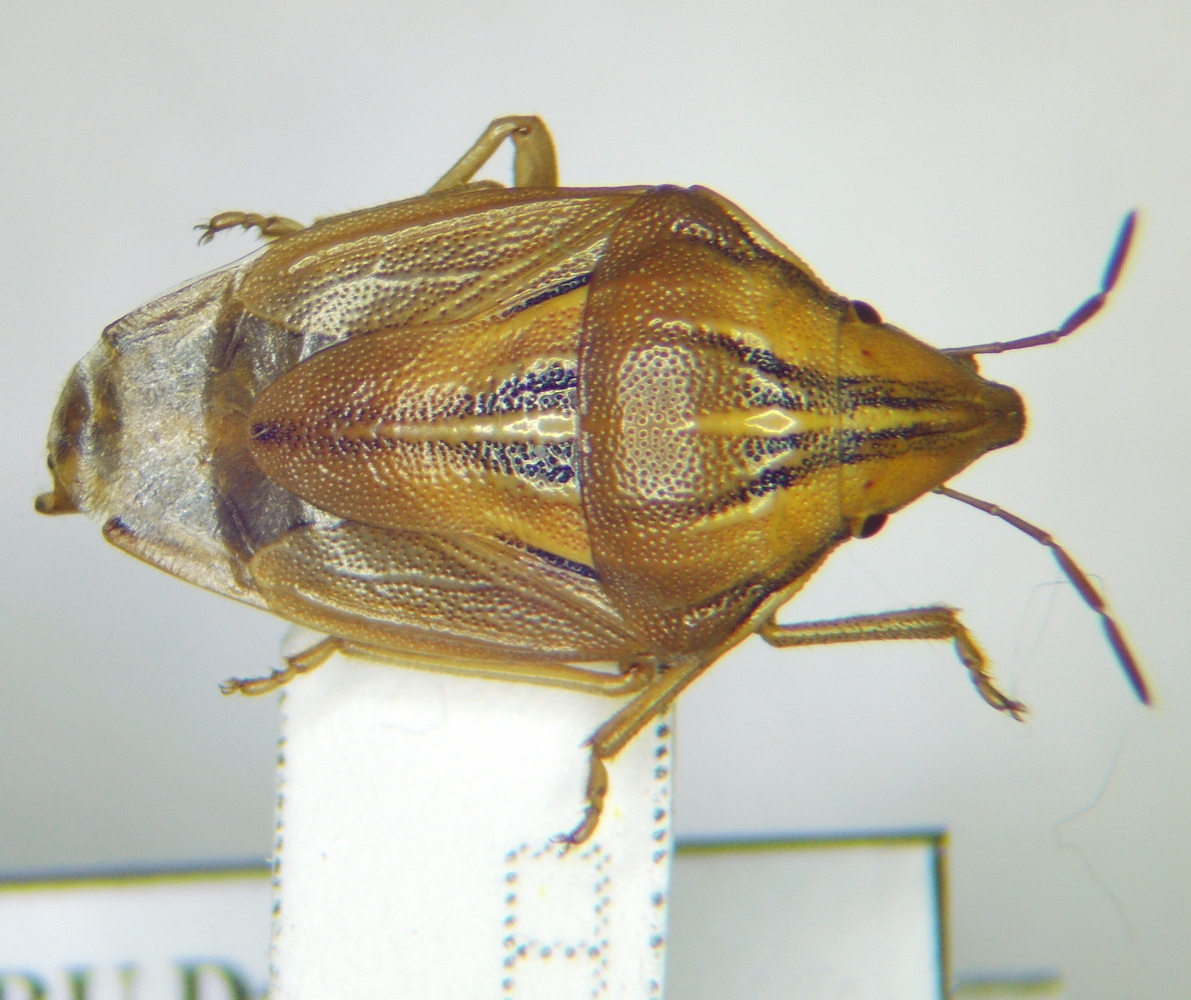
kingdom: Animalia
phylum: Arthropoda
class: Insecta
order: Hemiptera
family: Pentatomidae
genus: Aelia
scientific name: Aelia rostrata
